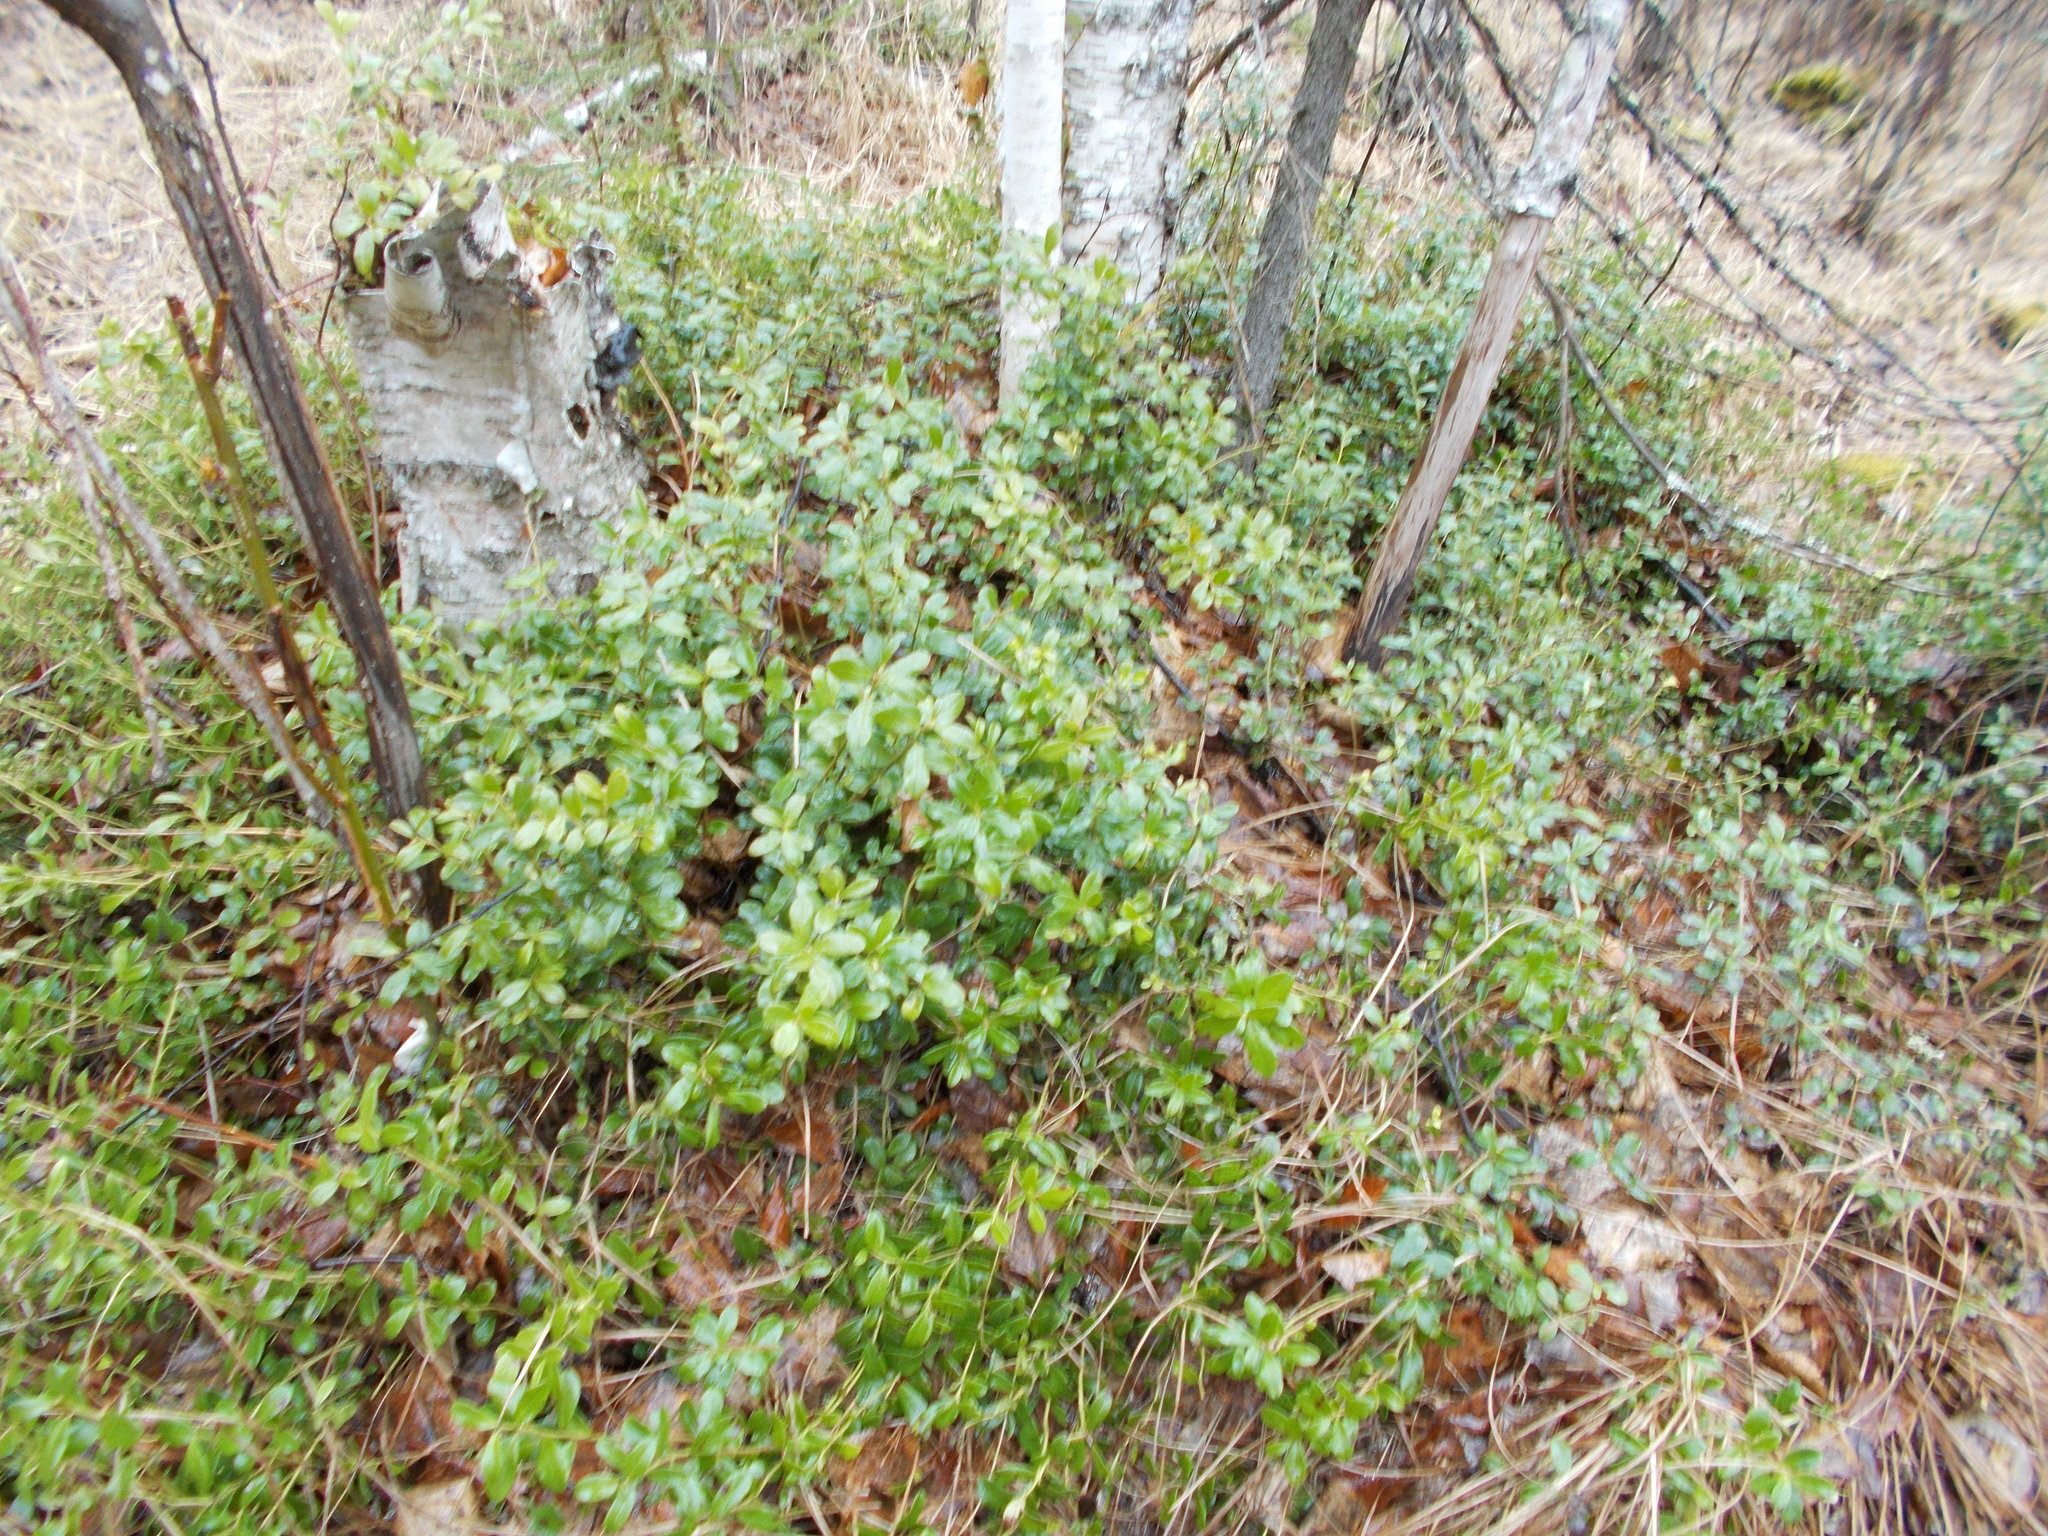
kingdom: Plantae
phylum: Tracheophyta
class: Magnoliopsida
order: Ericales
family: Ericaceae
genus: Vaccinium
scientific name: Vaccinium vitis-idaea
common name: Cowberry
